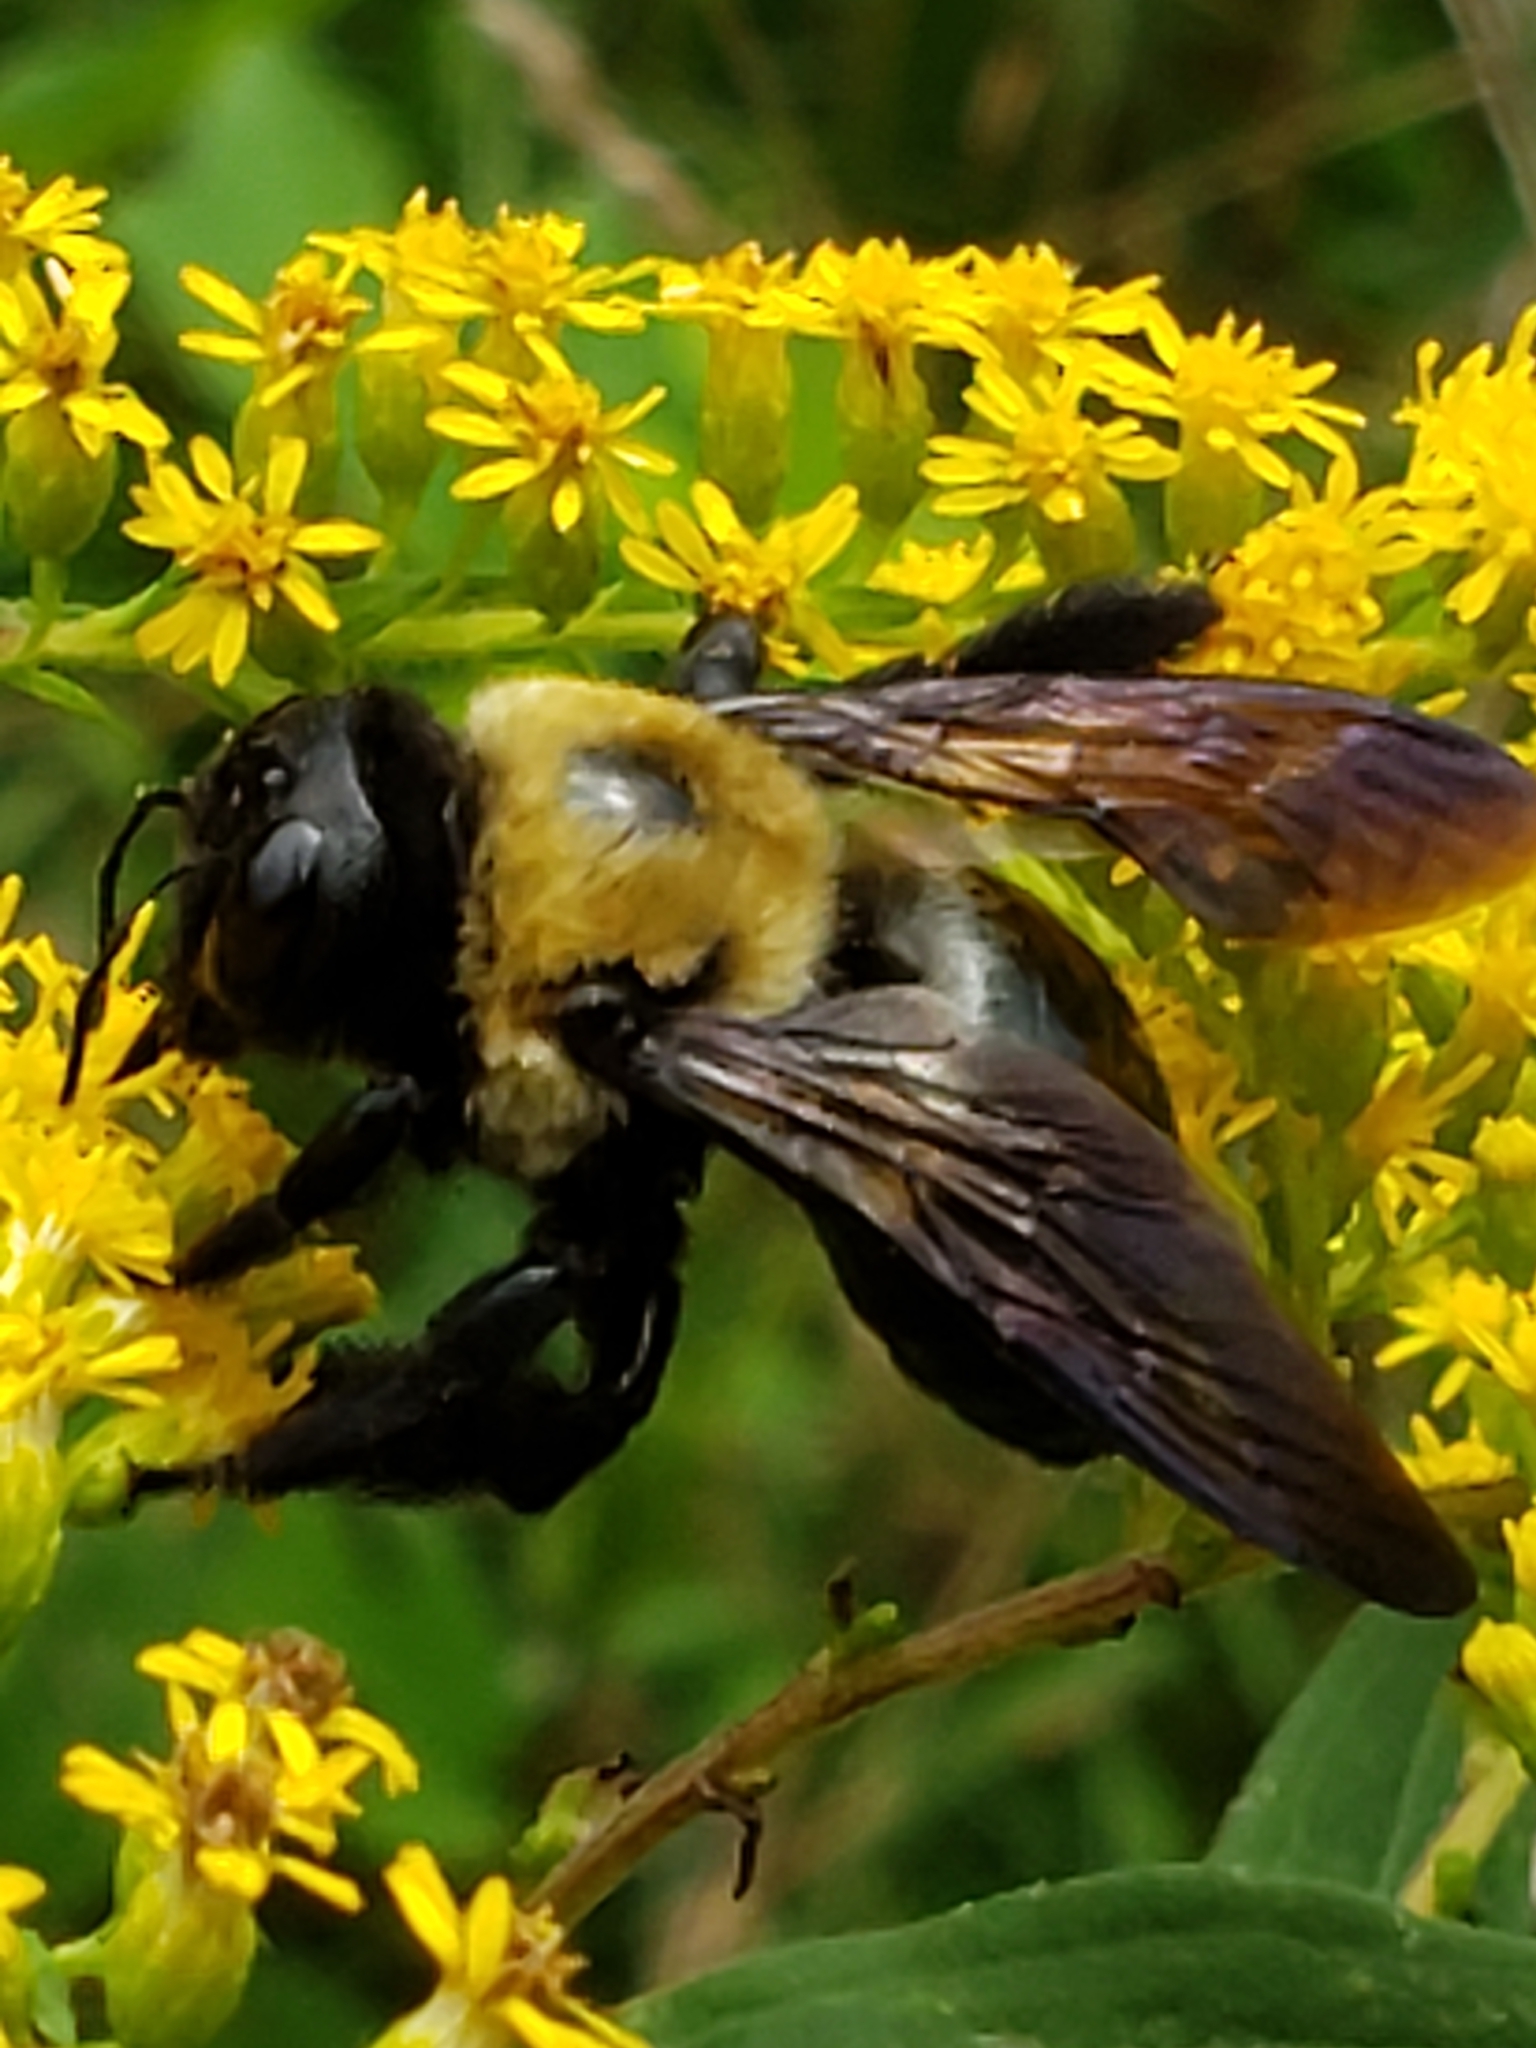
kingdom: Animalia
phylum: Arthropoda
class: Insecta
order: Hymenoptera
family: Apidae
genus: Xylocopa
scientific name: Xylocopa virginica
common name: Carpenter bee
